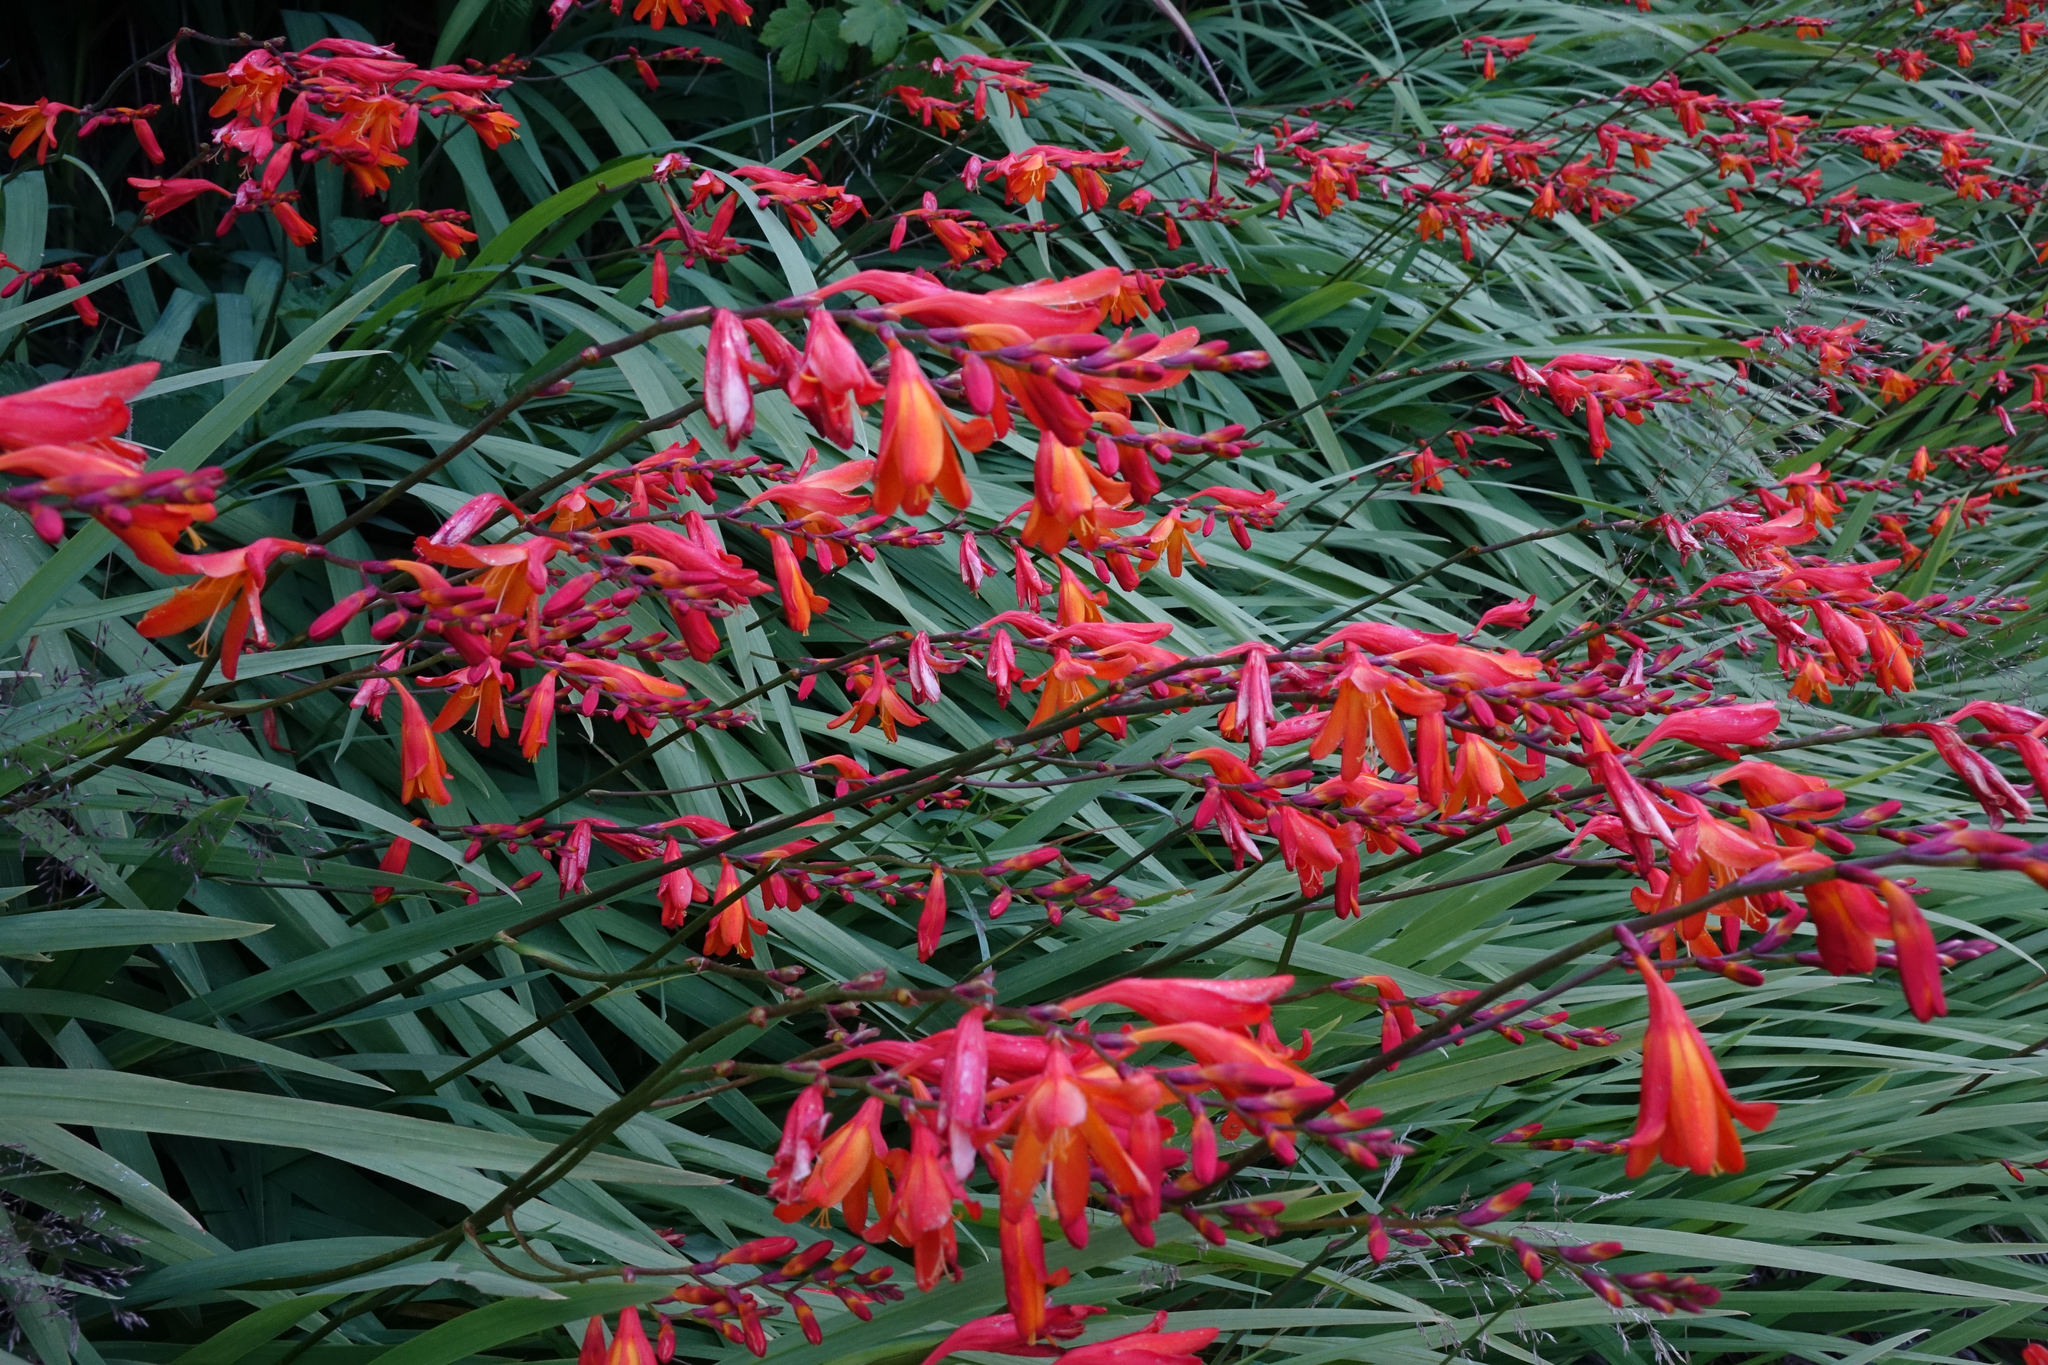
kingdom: Plantae
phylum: Tracheophyta
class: Liliopsida
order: Asparagales
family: Iridaceae
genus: Crocosmia
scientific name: Crocosmia crocosmiiflora
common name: Montbretia
